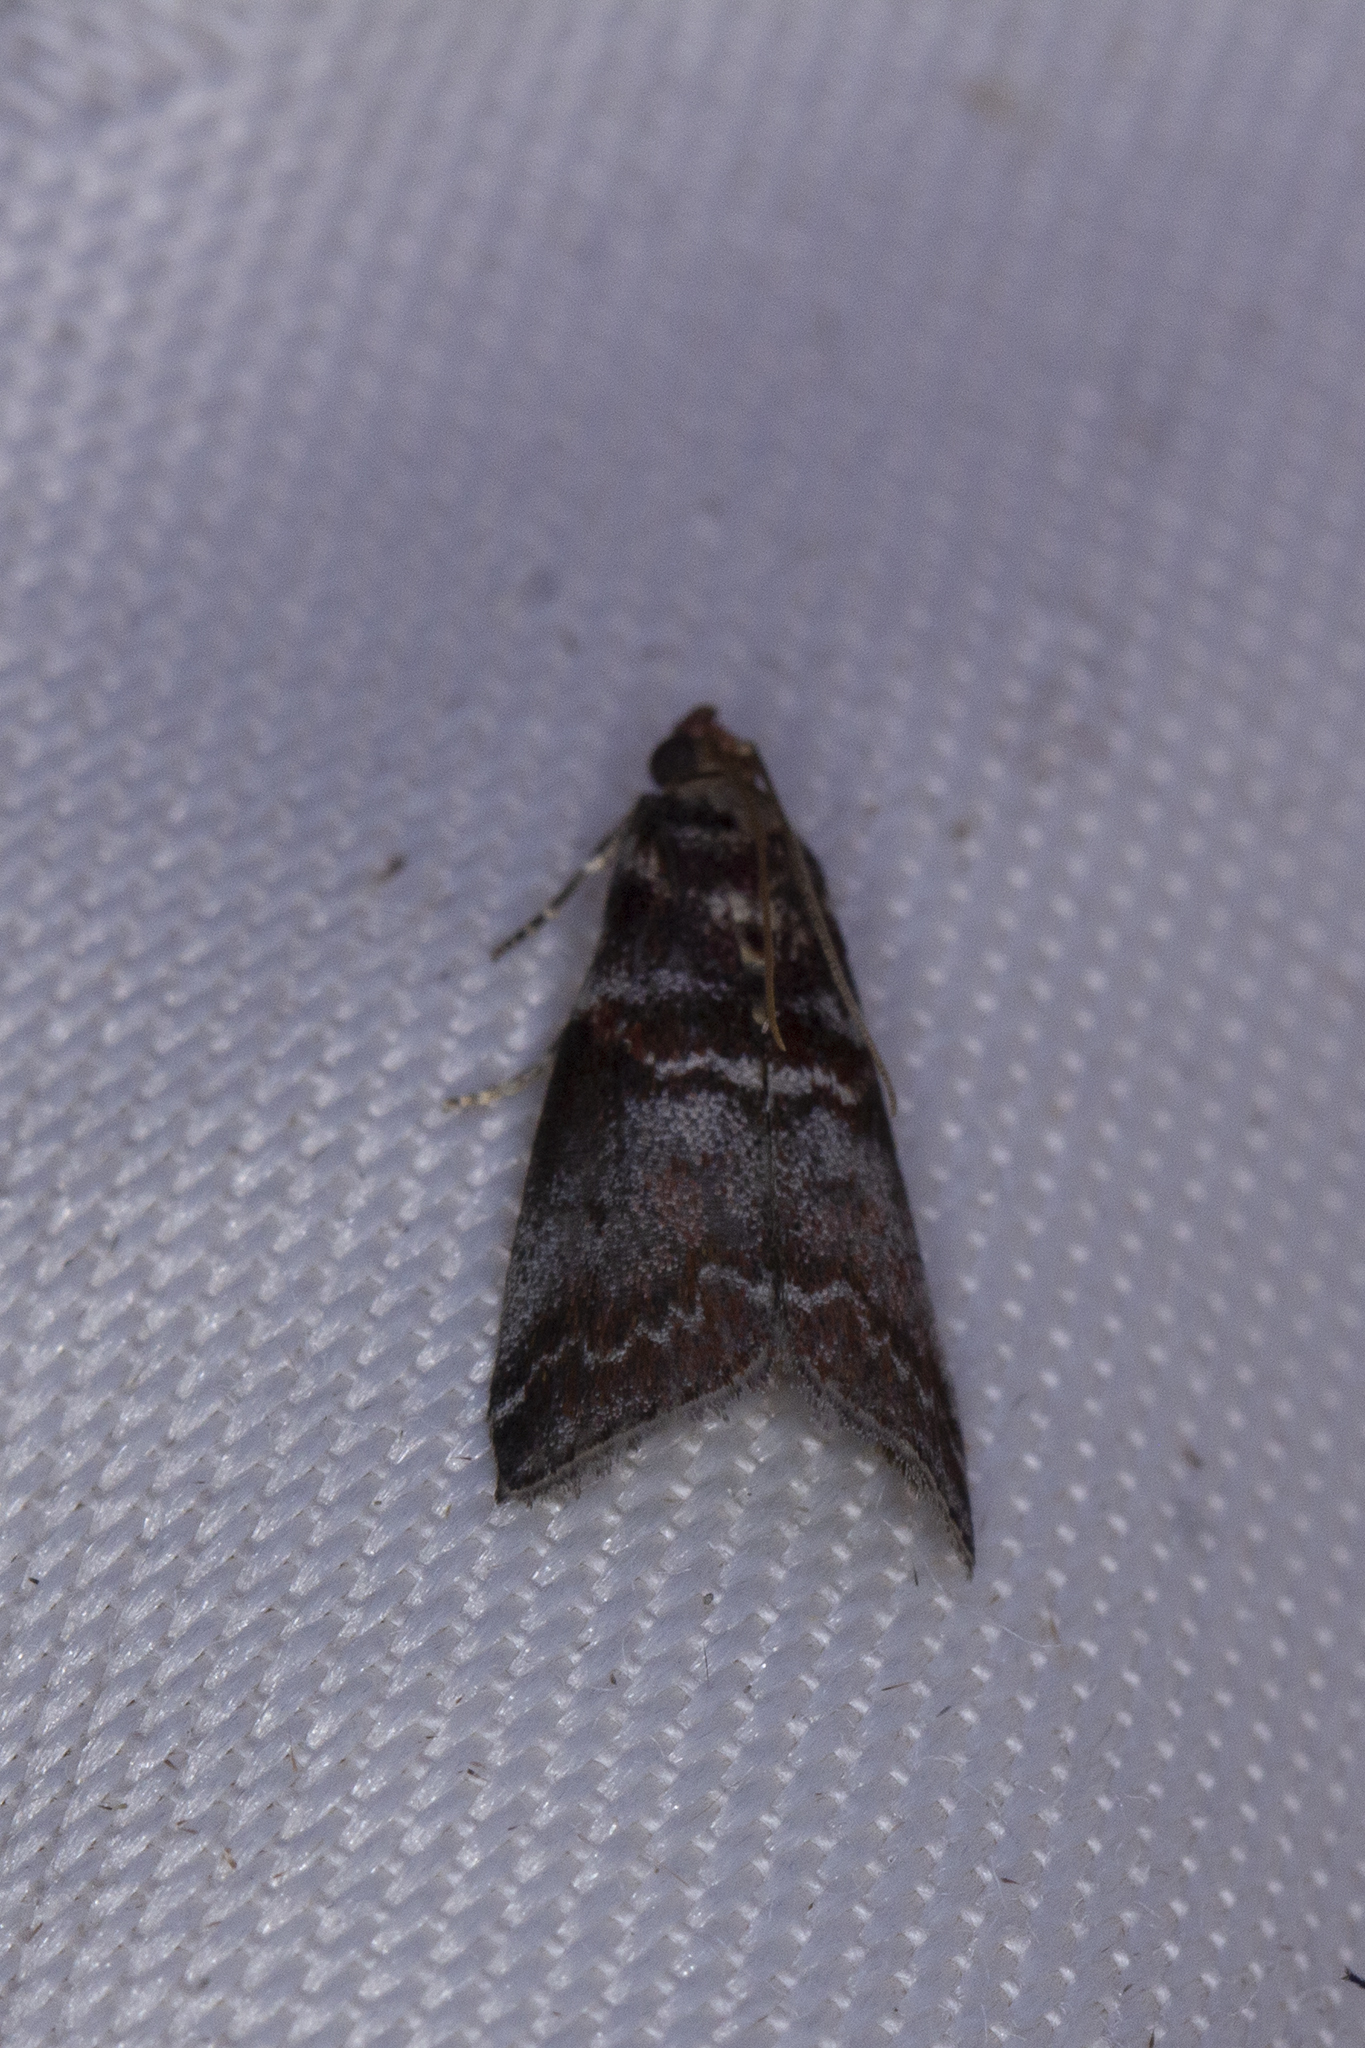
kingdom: Animalia
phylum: Arthropoda
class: Insecta
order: Lepidoptera
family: Pyralidae
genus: Acrobasis
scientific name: Acrobasis advenella
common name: Grey knot-horn
